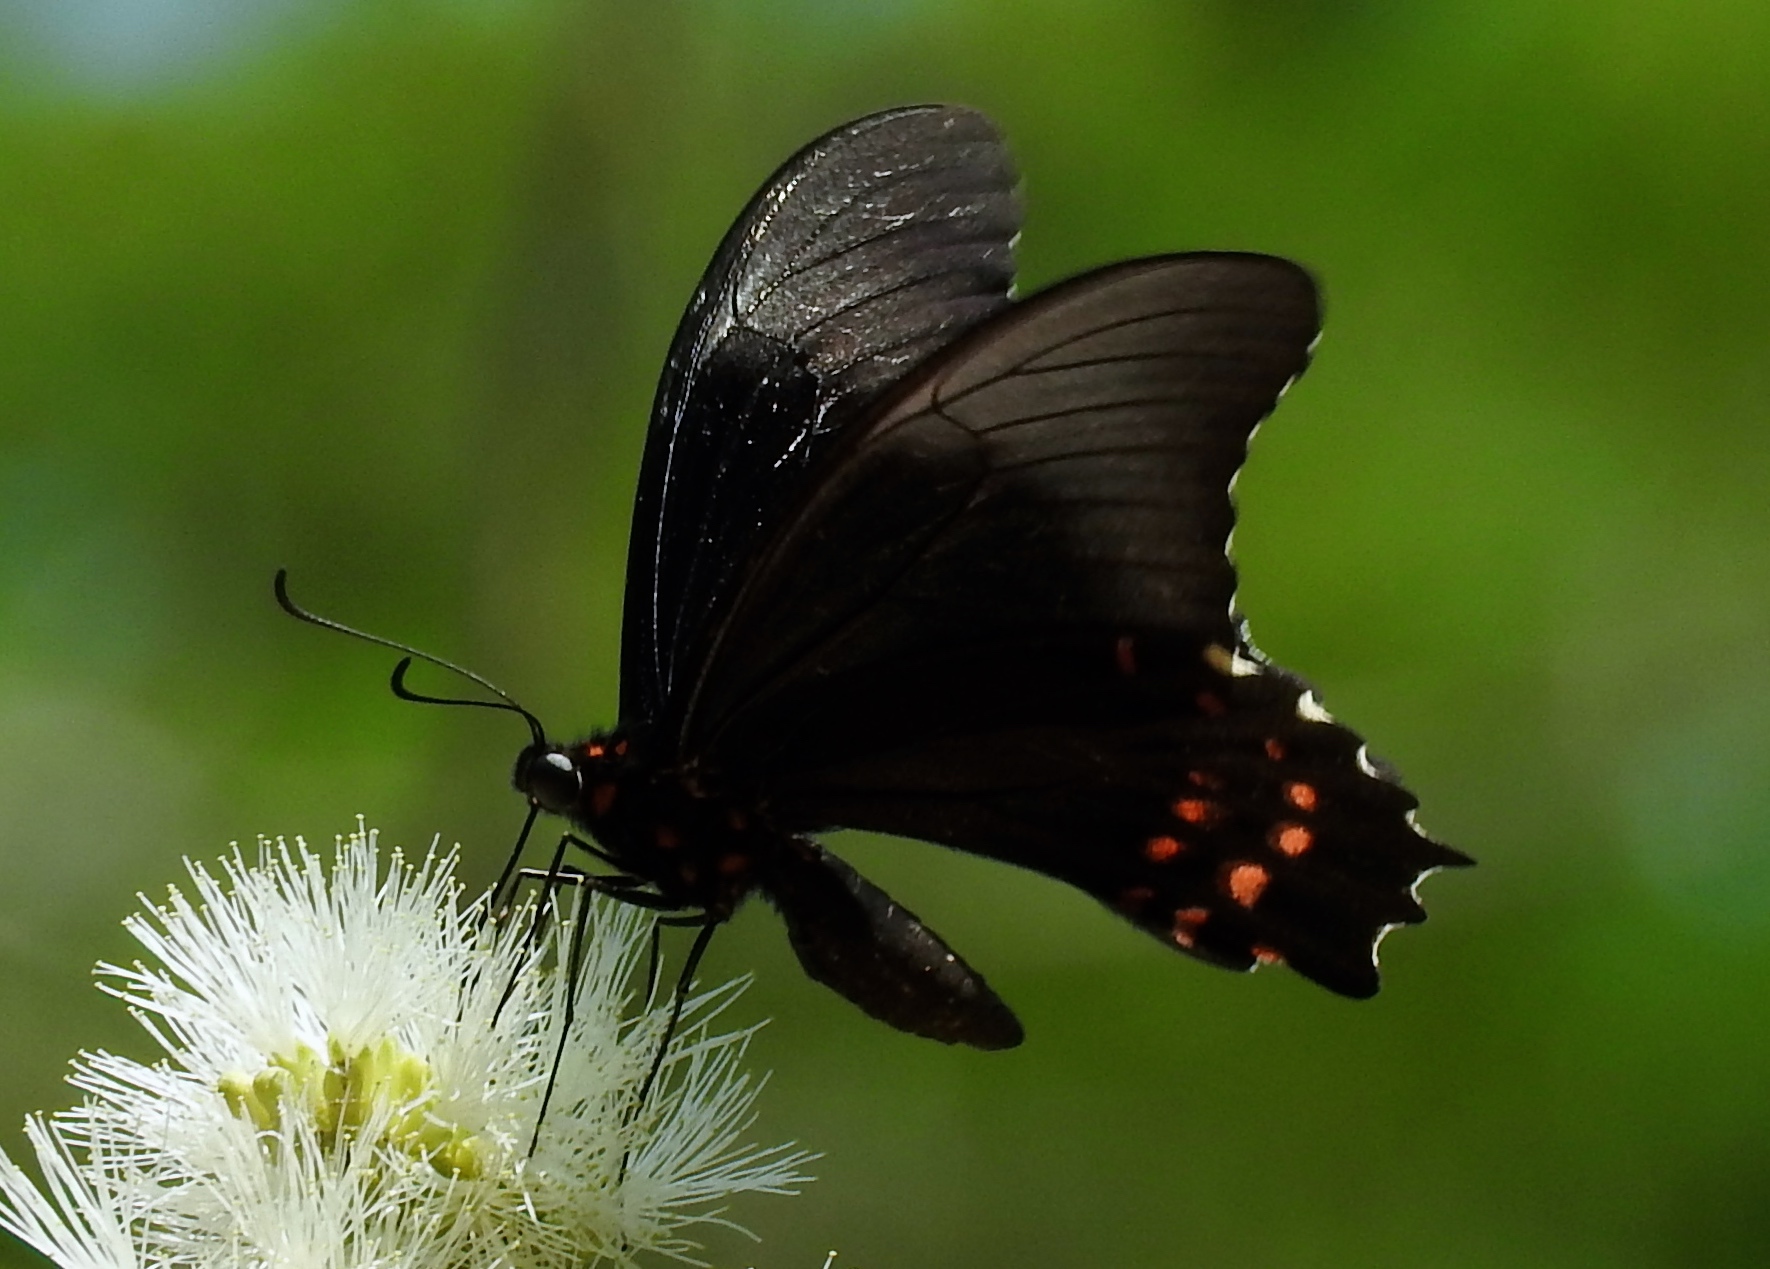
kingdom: Animalia
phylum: Arthropoda
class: Insecta
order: Lepidoptera
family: Papilionidae
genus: Heraclides
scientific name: Heraclides rogeri
